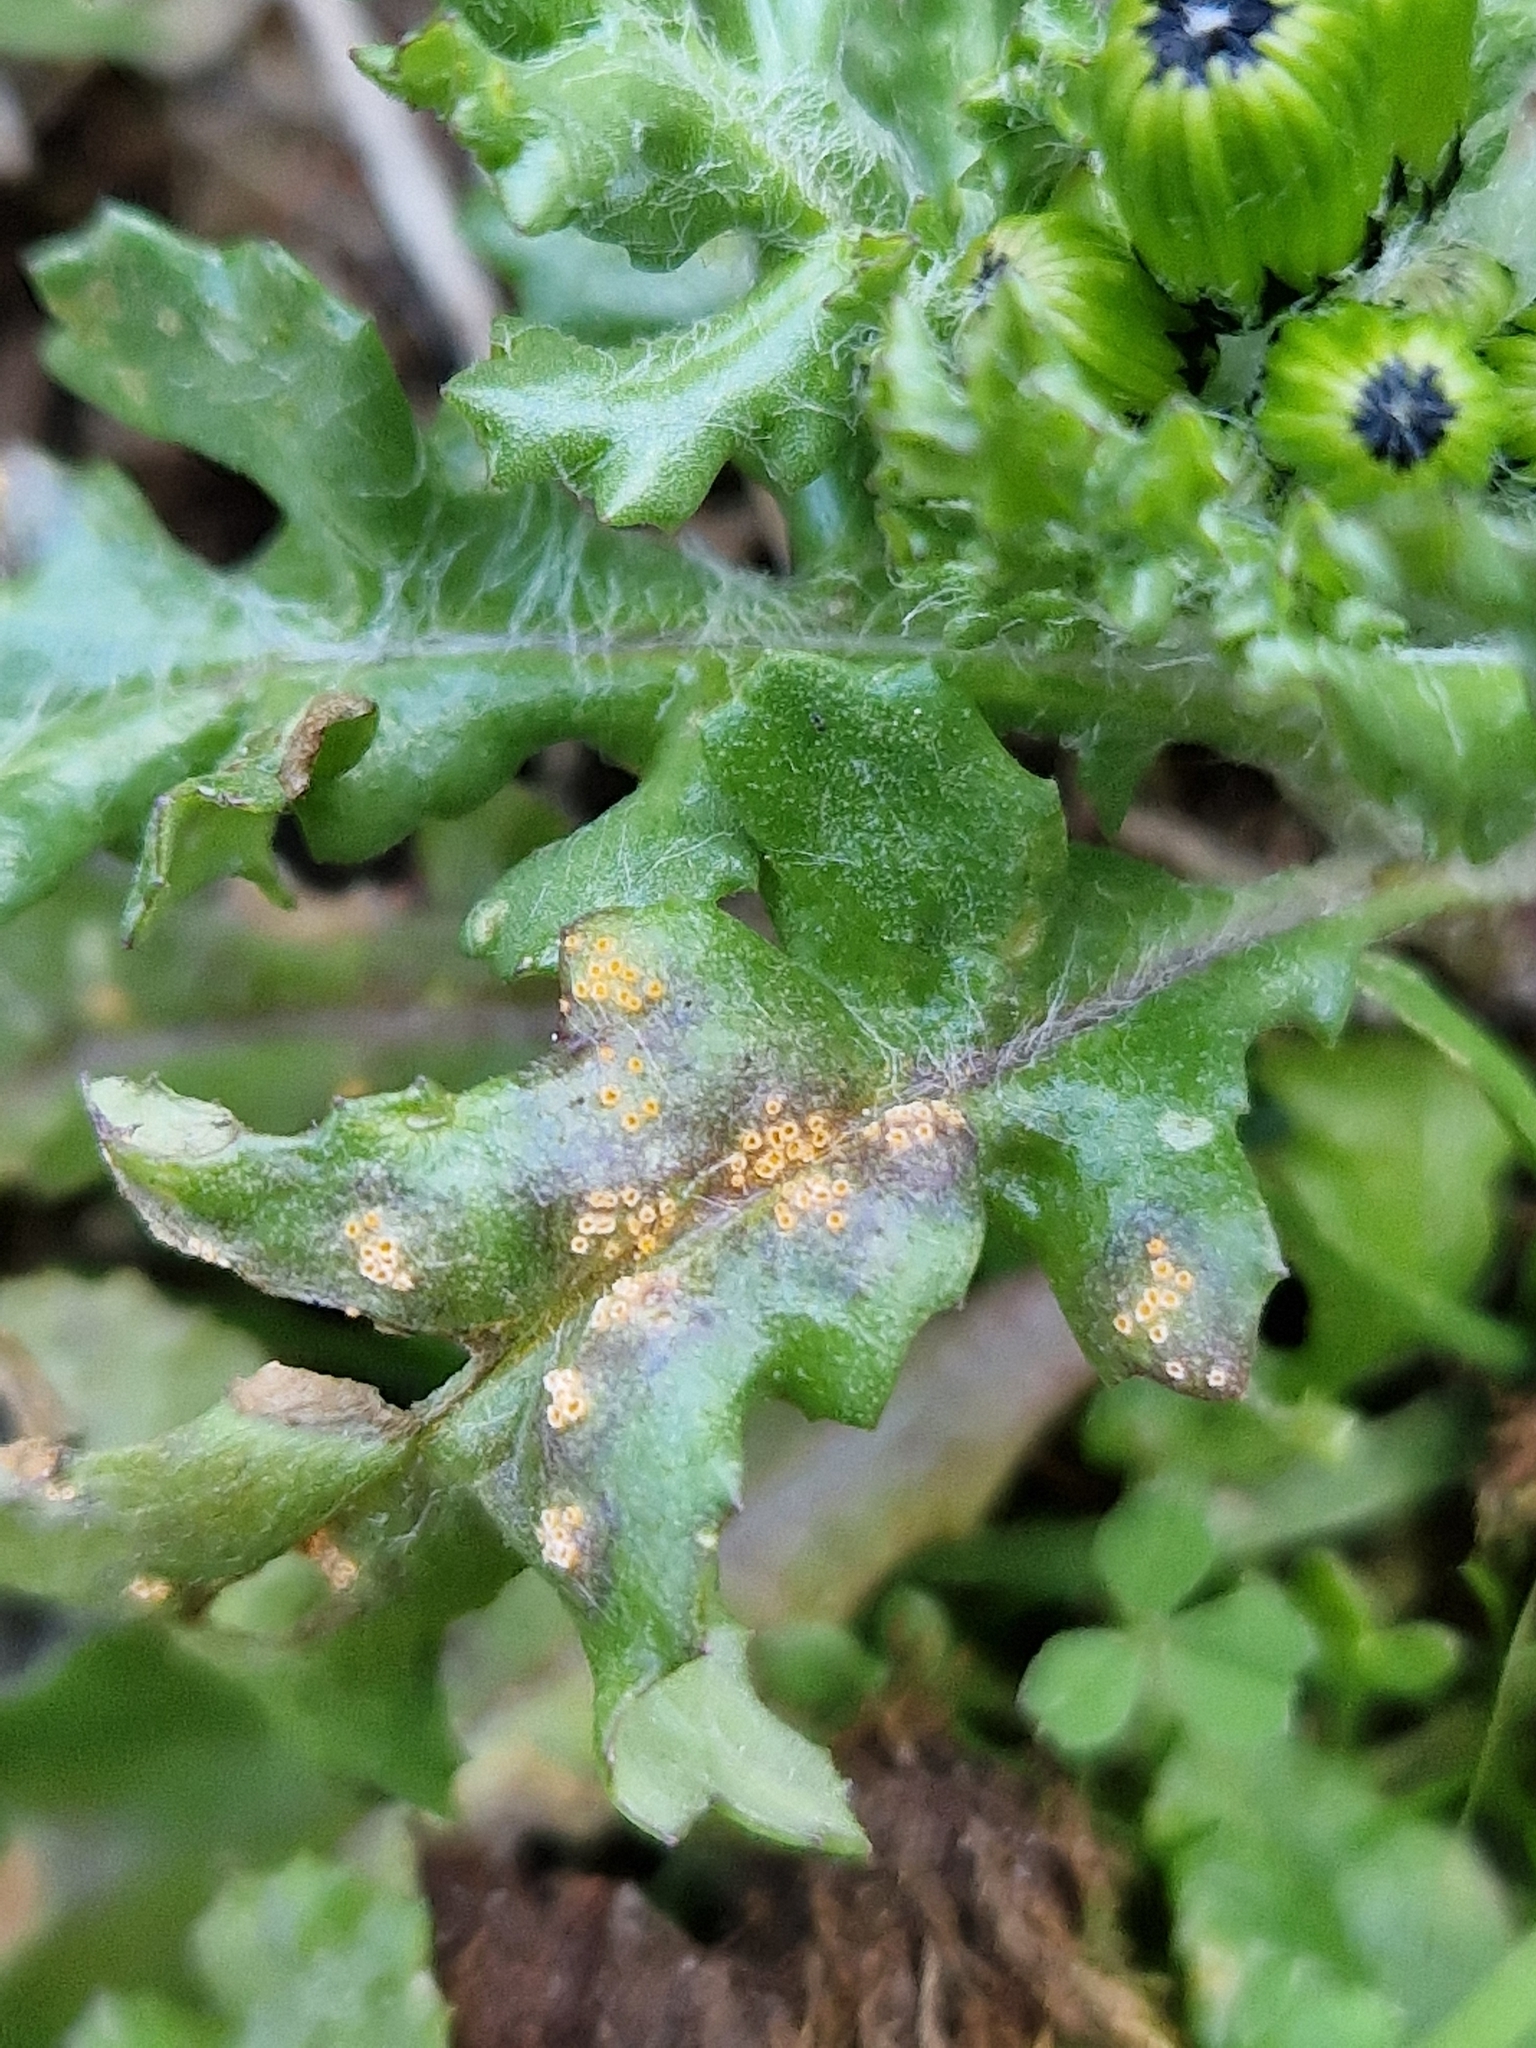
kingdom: Fungi
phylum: Basidiomycota
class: Pucciniomycetes
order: Pucciniales
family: Pucciniaceae
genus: Puccinia
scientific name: Puccinia lagenophorae
